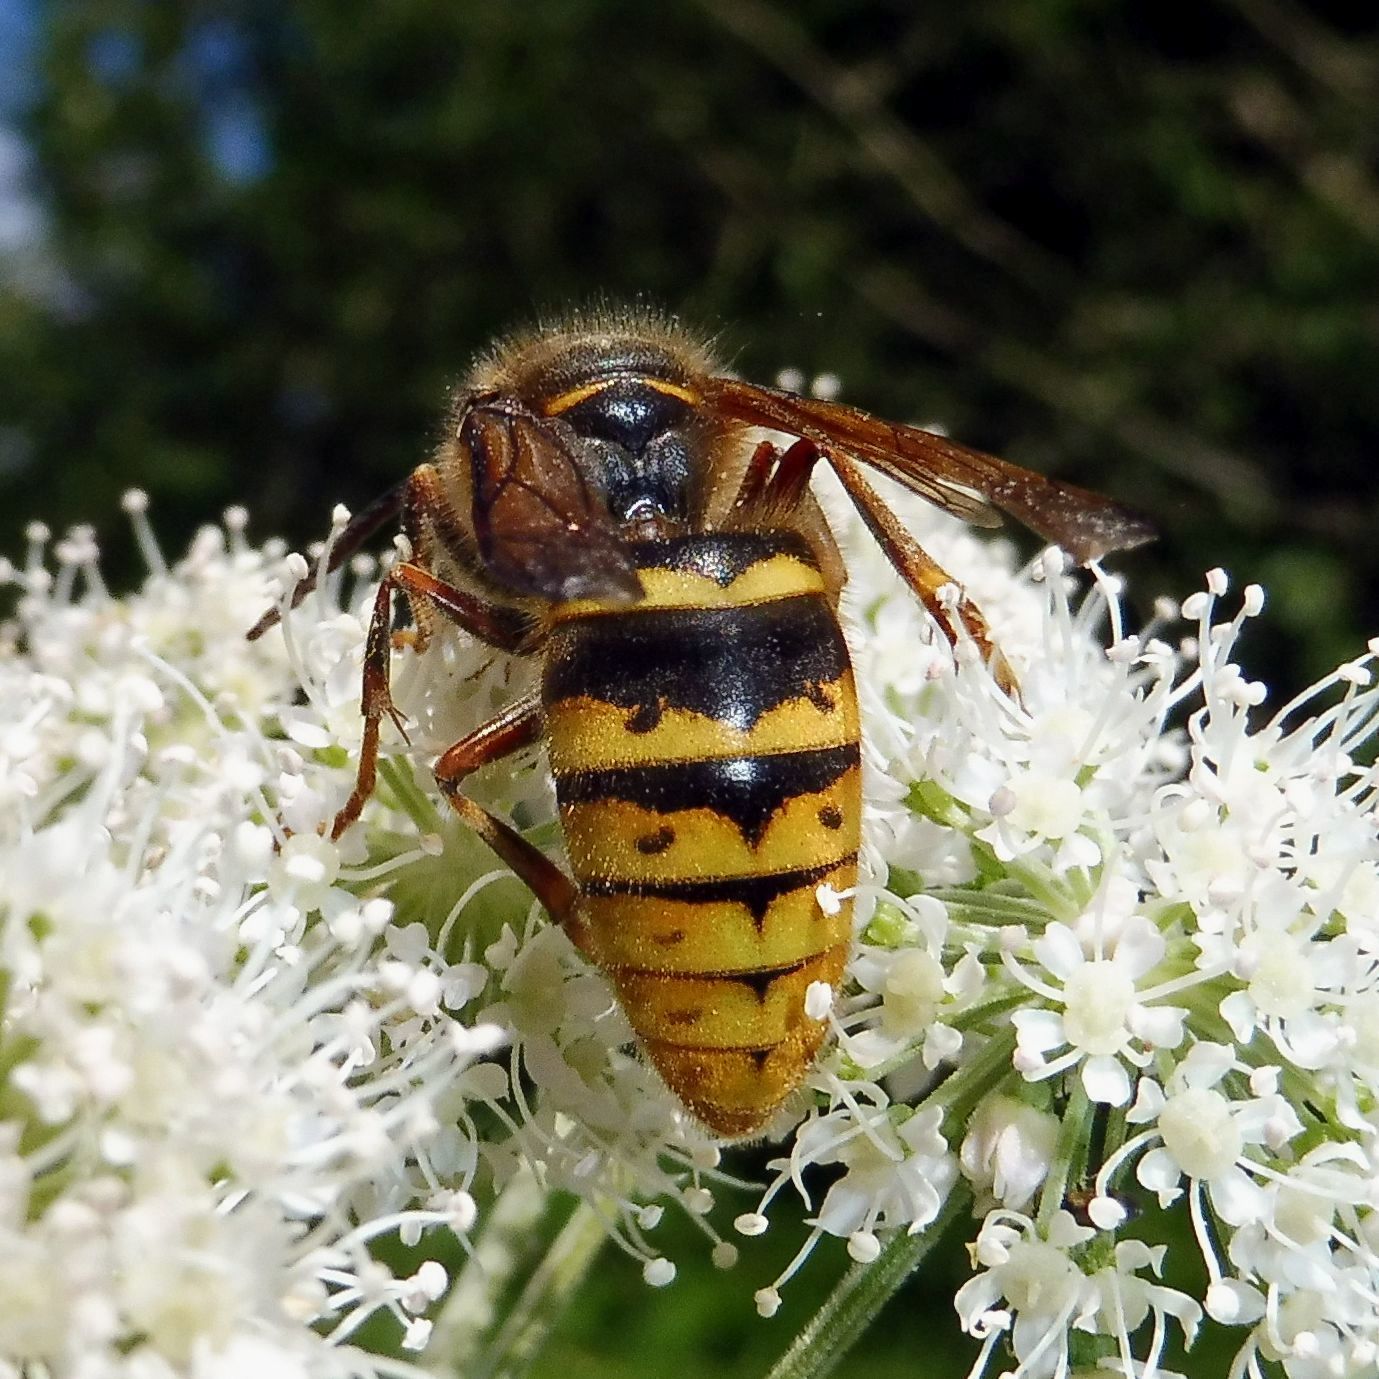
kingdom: Animalia
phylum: Arthropoda
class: Insecta
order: Hymenoptera
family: Vespidae
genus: Dolichovespula
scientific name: Dolichovespula media
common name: Median wasp
